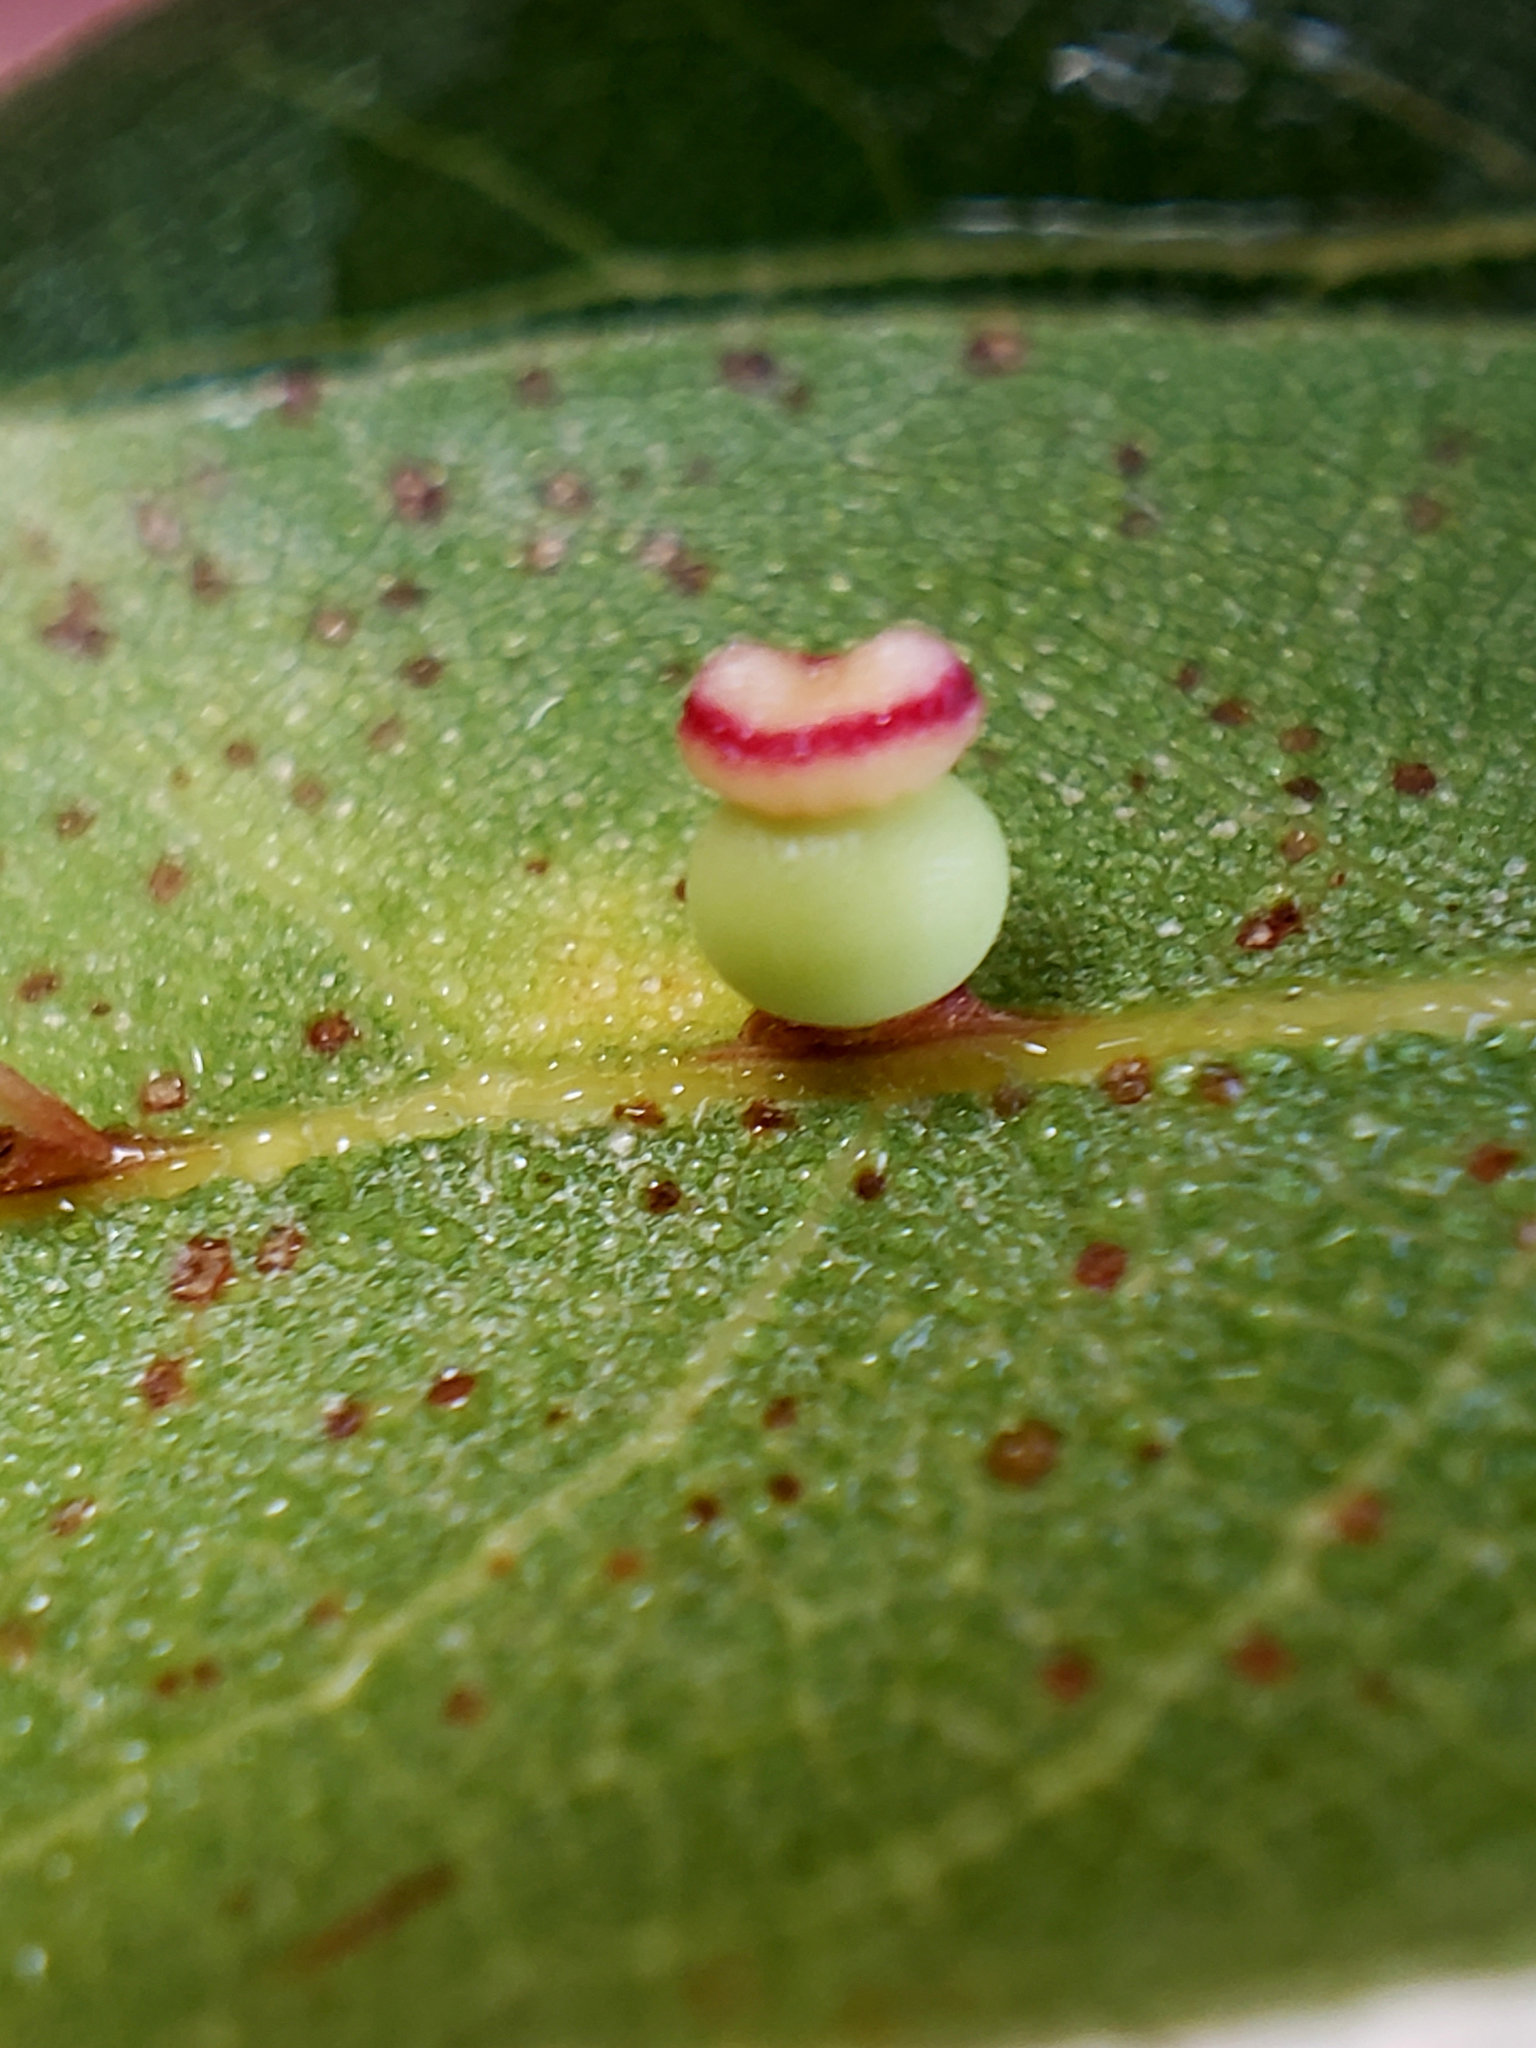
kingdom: Animalia
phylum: Arthropoda
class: Insecta
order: Hymenoptera
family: Cynipidae
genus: Callirhytis
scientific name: Callirhytis
